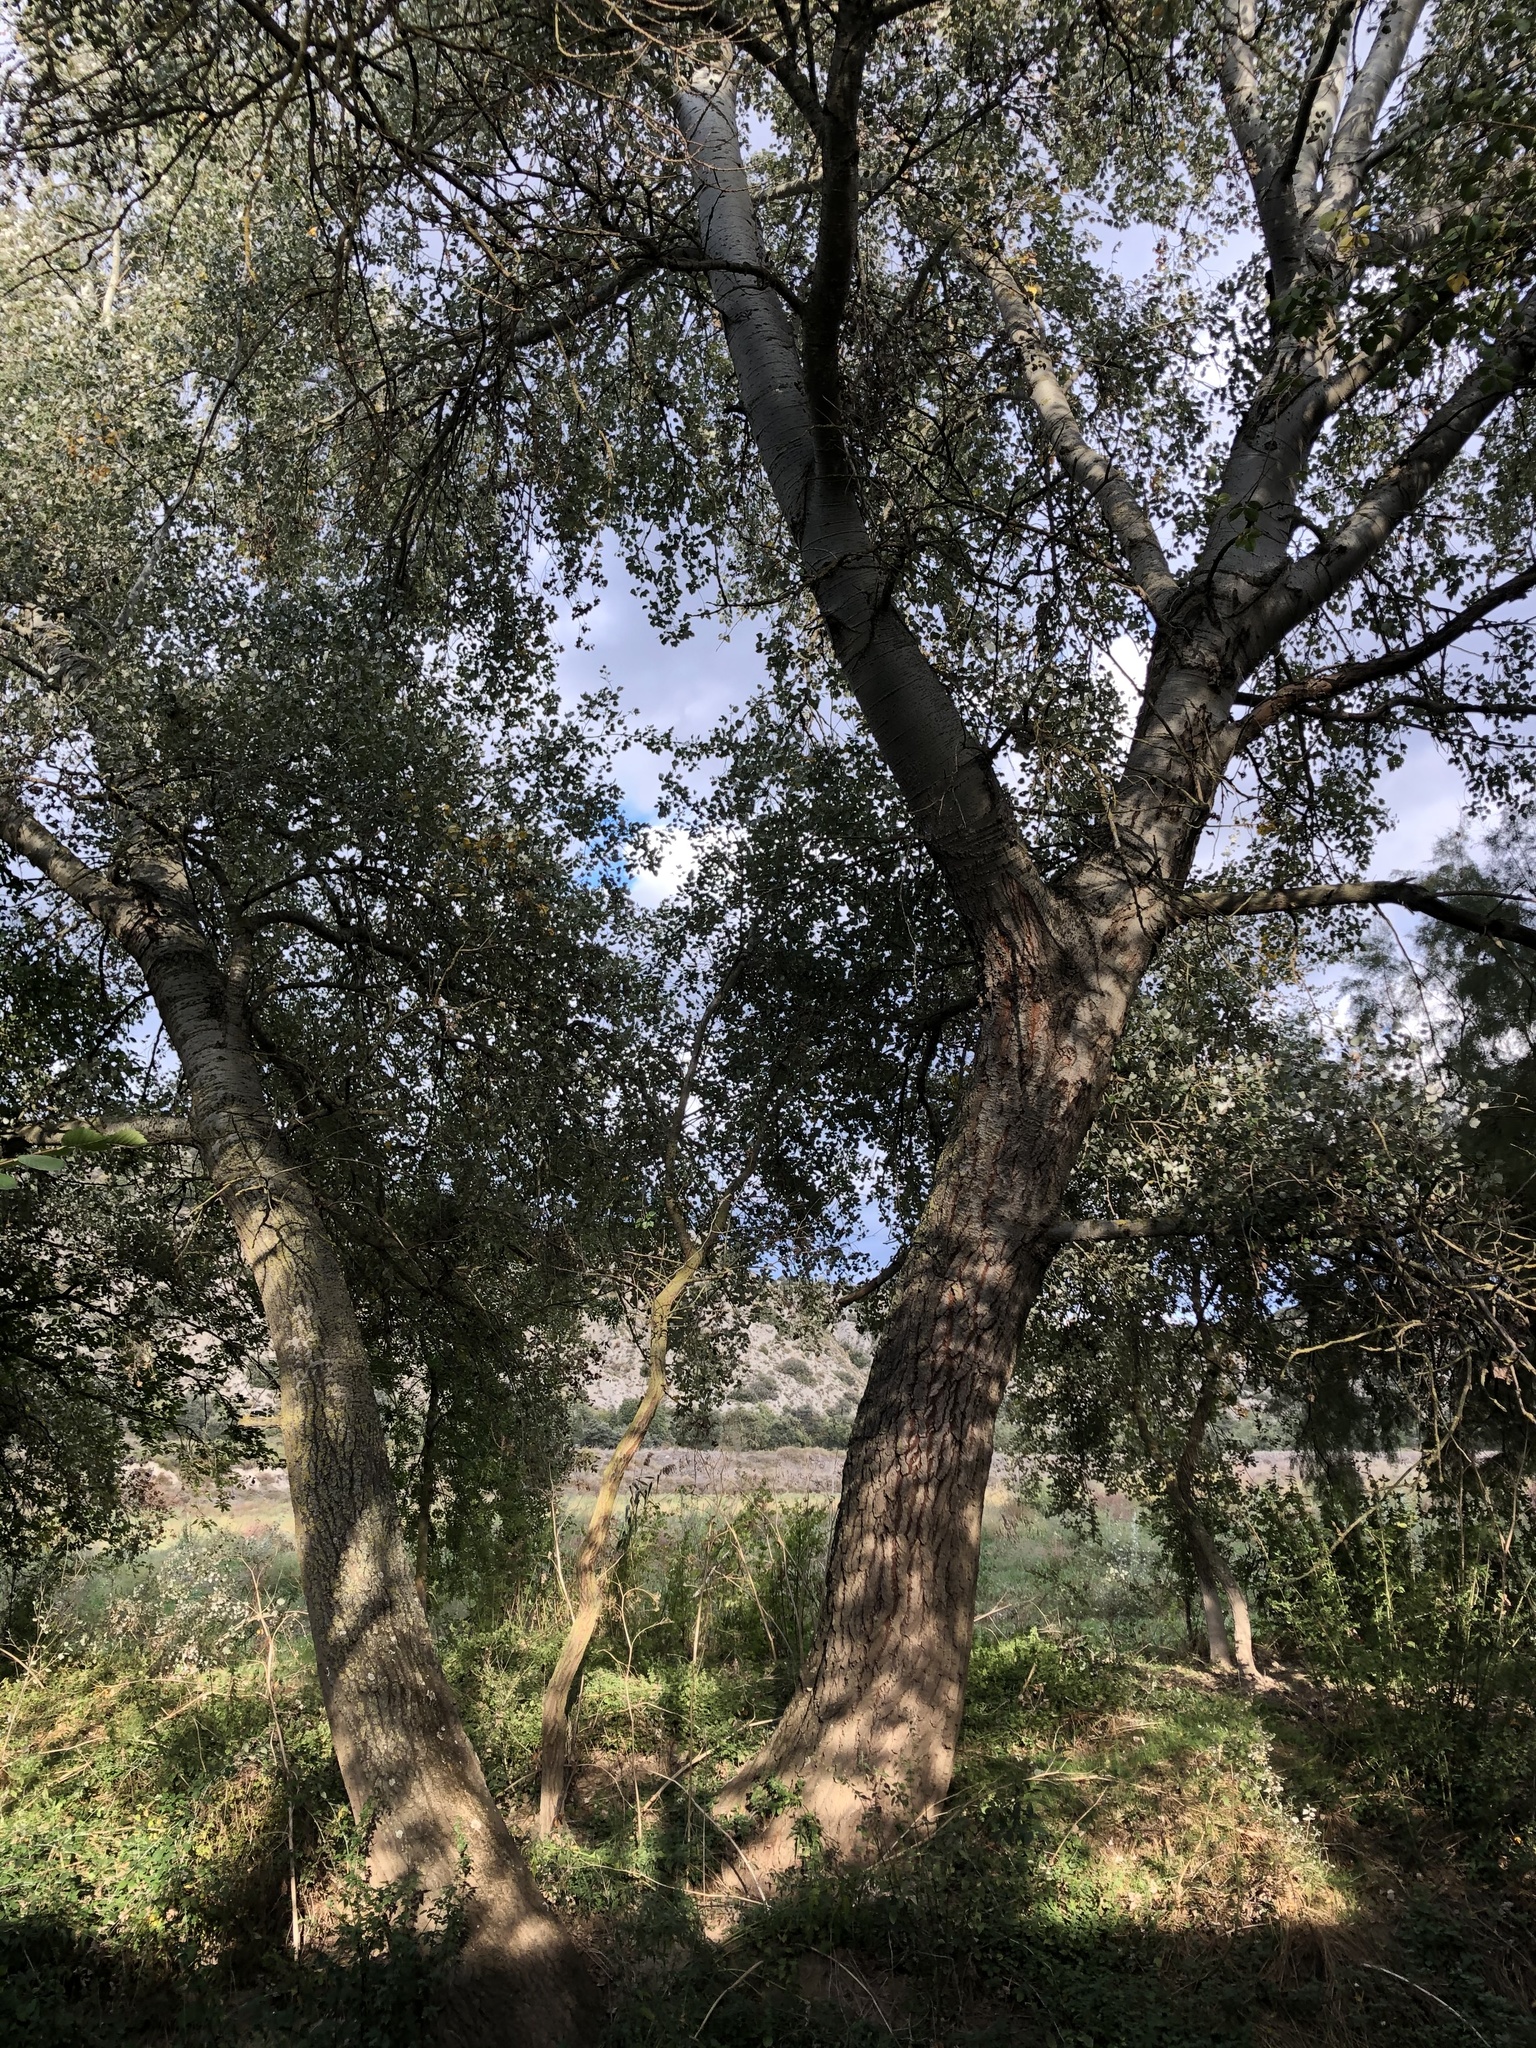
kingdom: Plantae
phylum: Tracheophyta
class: Magnoliopsida
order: Malpighiales
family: Salicaceae
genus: Populus
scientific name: Populus alba
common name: White poplar
